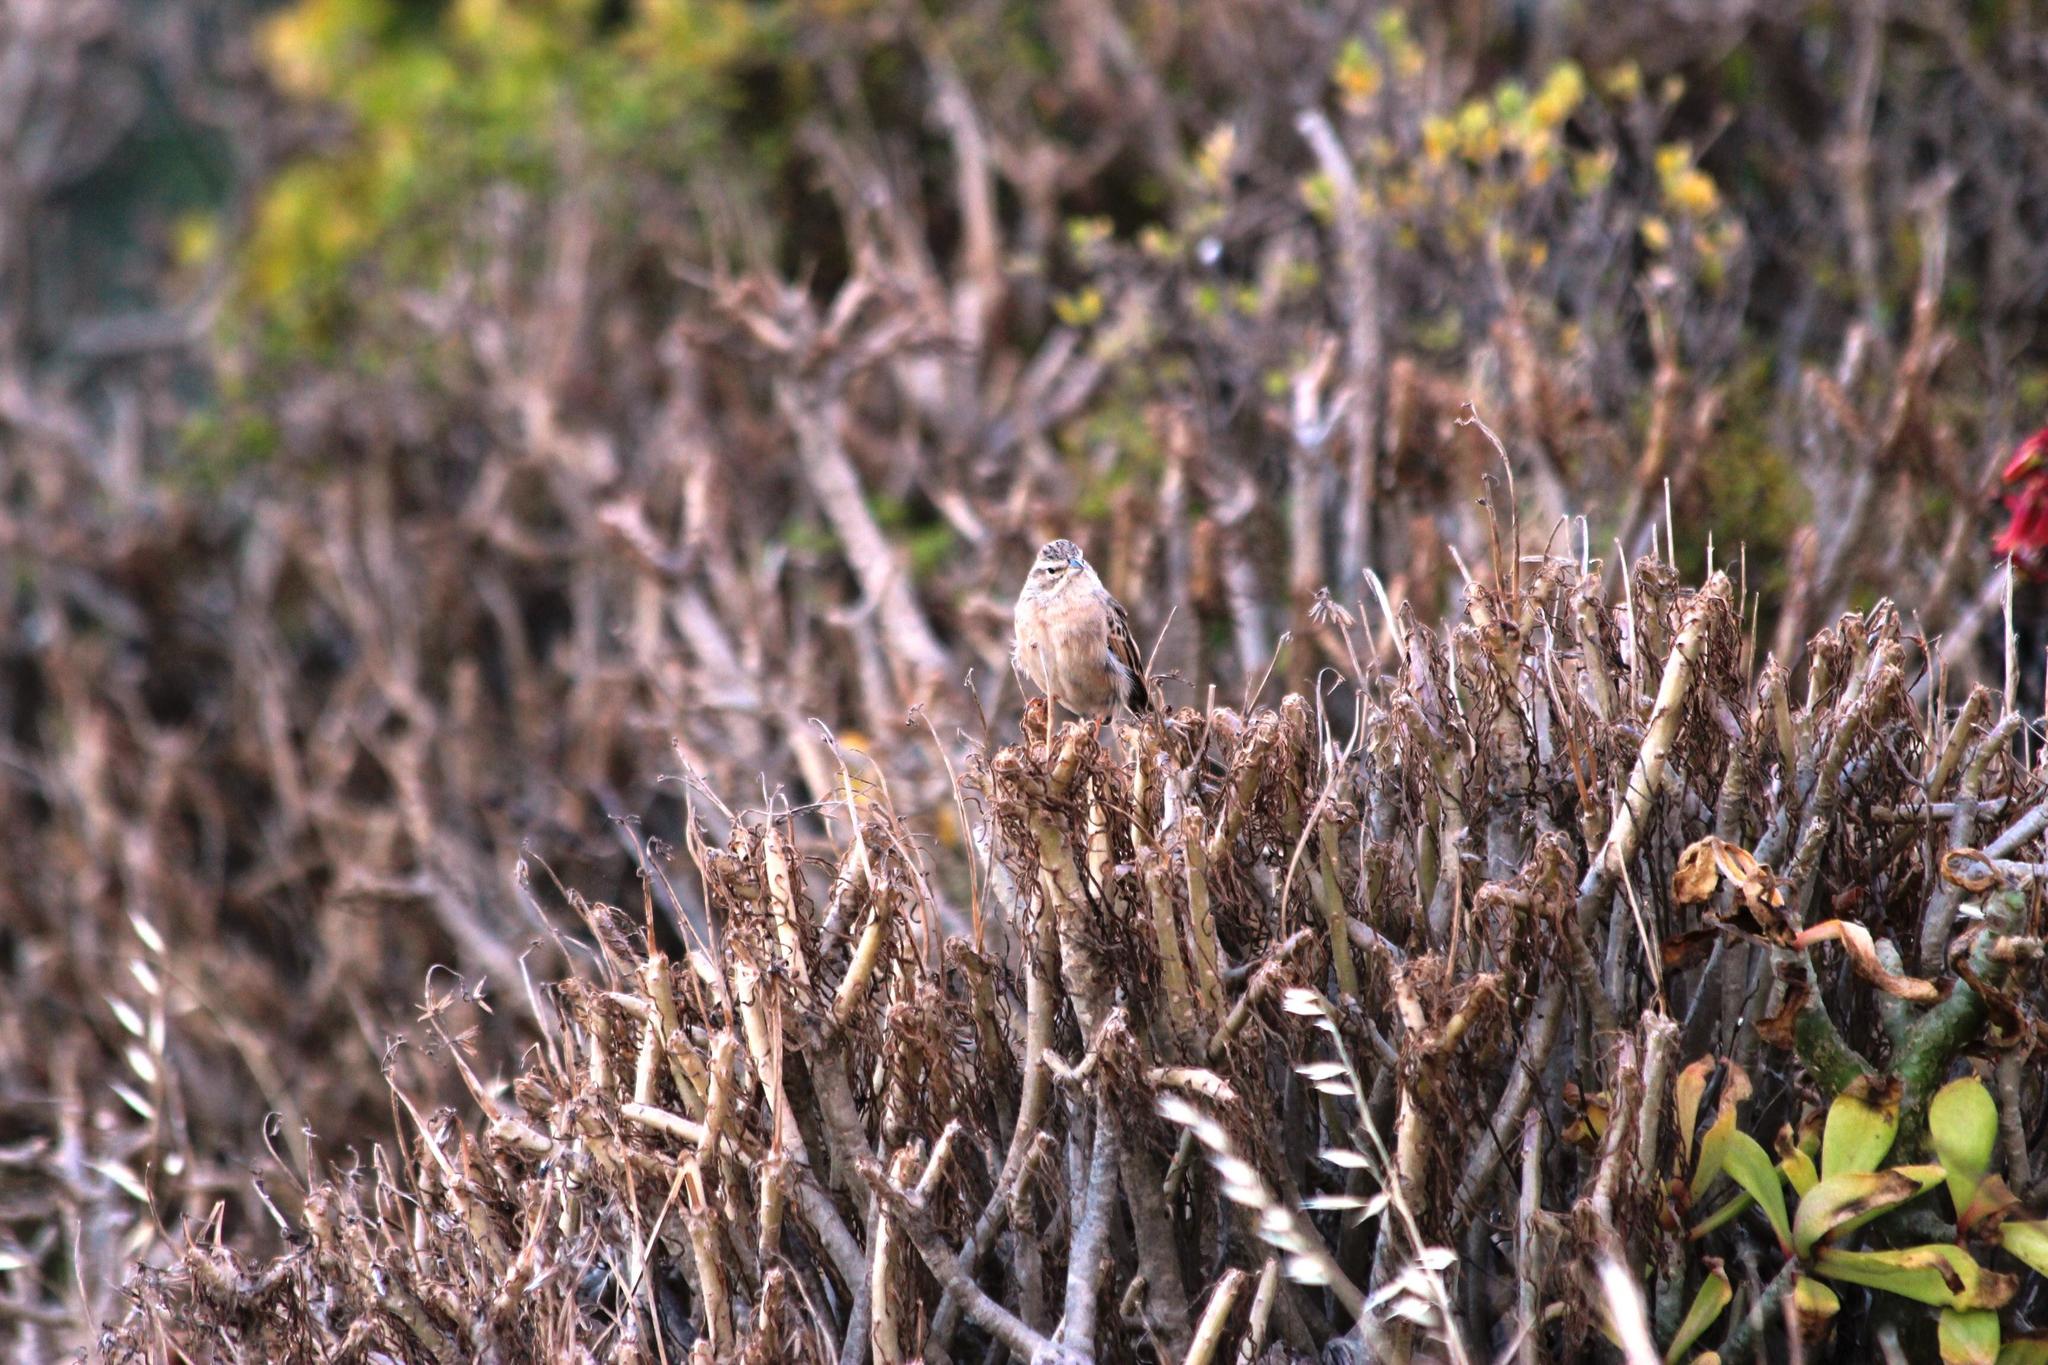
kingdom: Plantae
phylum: Tracheophyta
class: Magnoliopsida
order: Asterales
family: Asteraceae
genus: Curio
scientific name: Curio corymbifer
